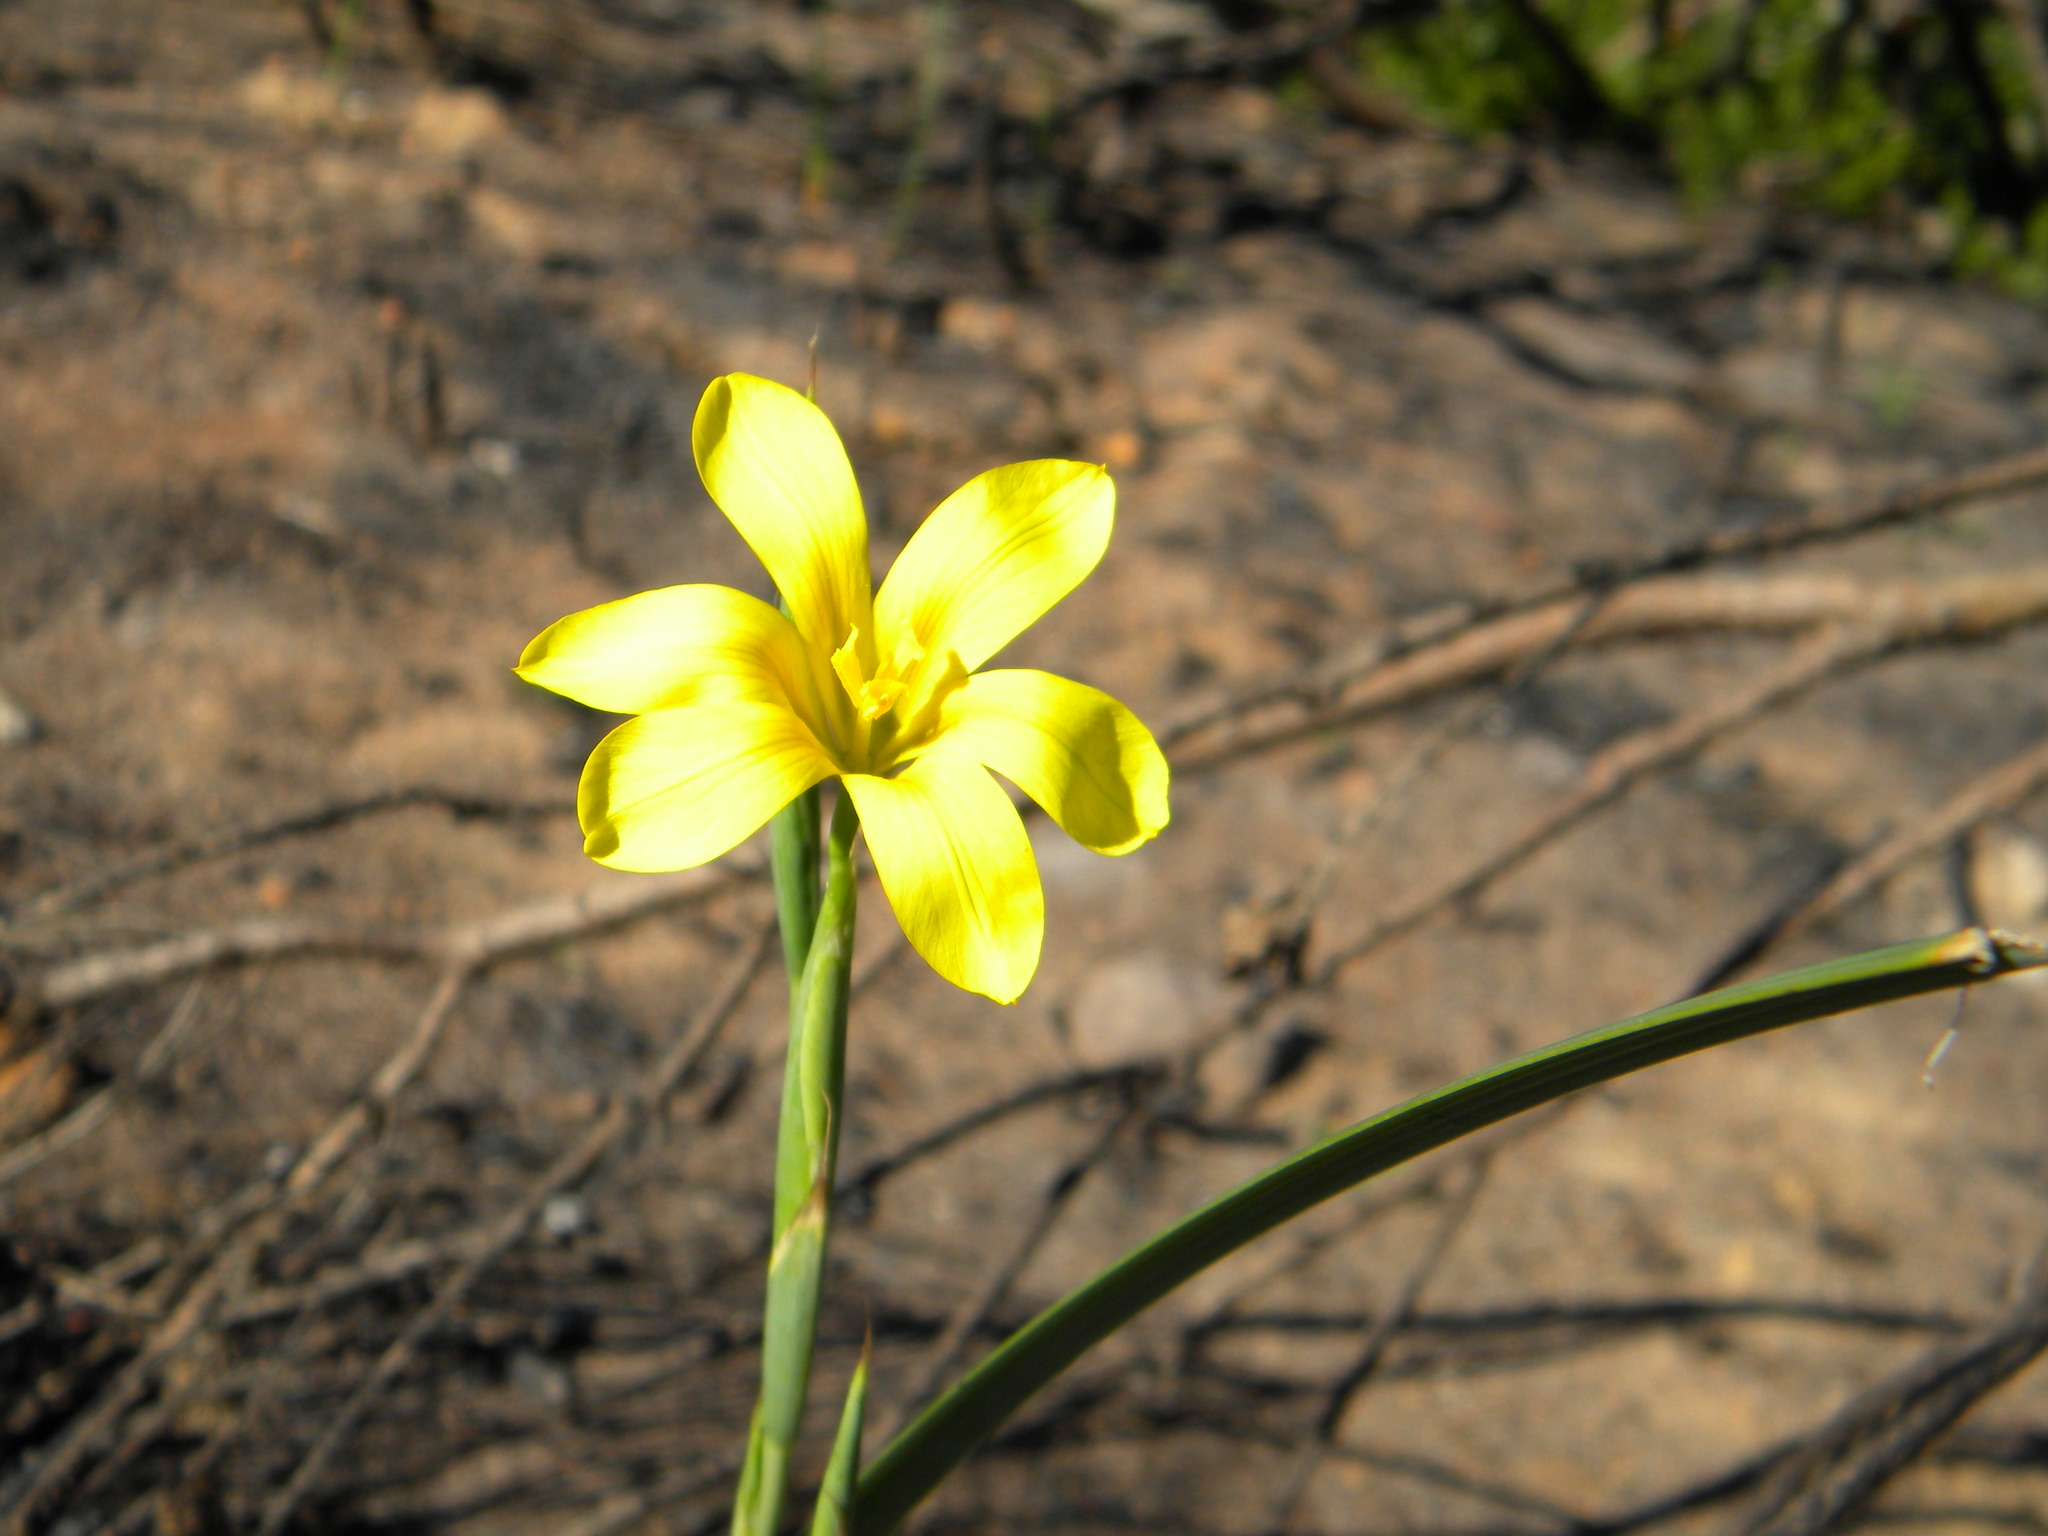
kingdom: Plantae
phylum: Tracheophyta
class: Liliopsida
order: Asparagales
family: Iridaceae
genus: Moraea
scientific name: Moraea ochroleuca
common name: Red tulp
